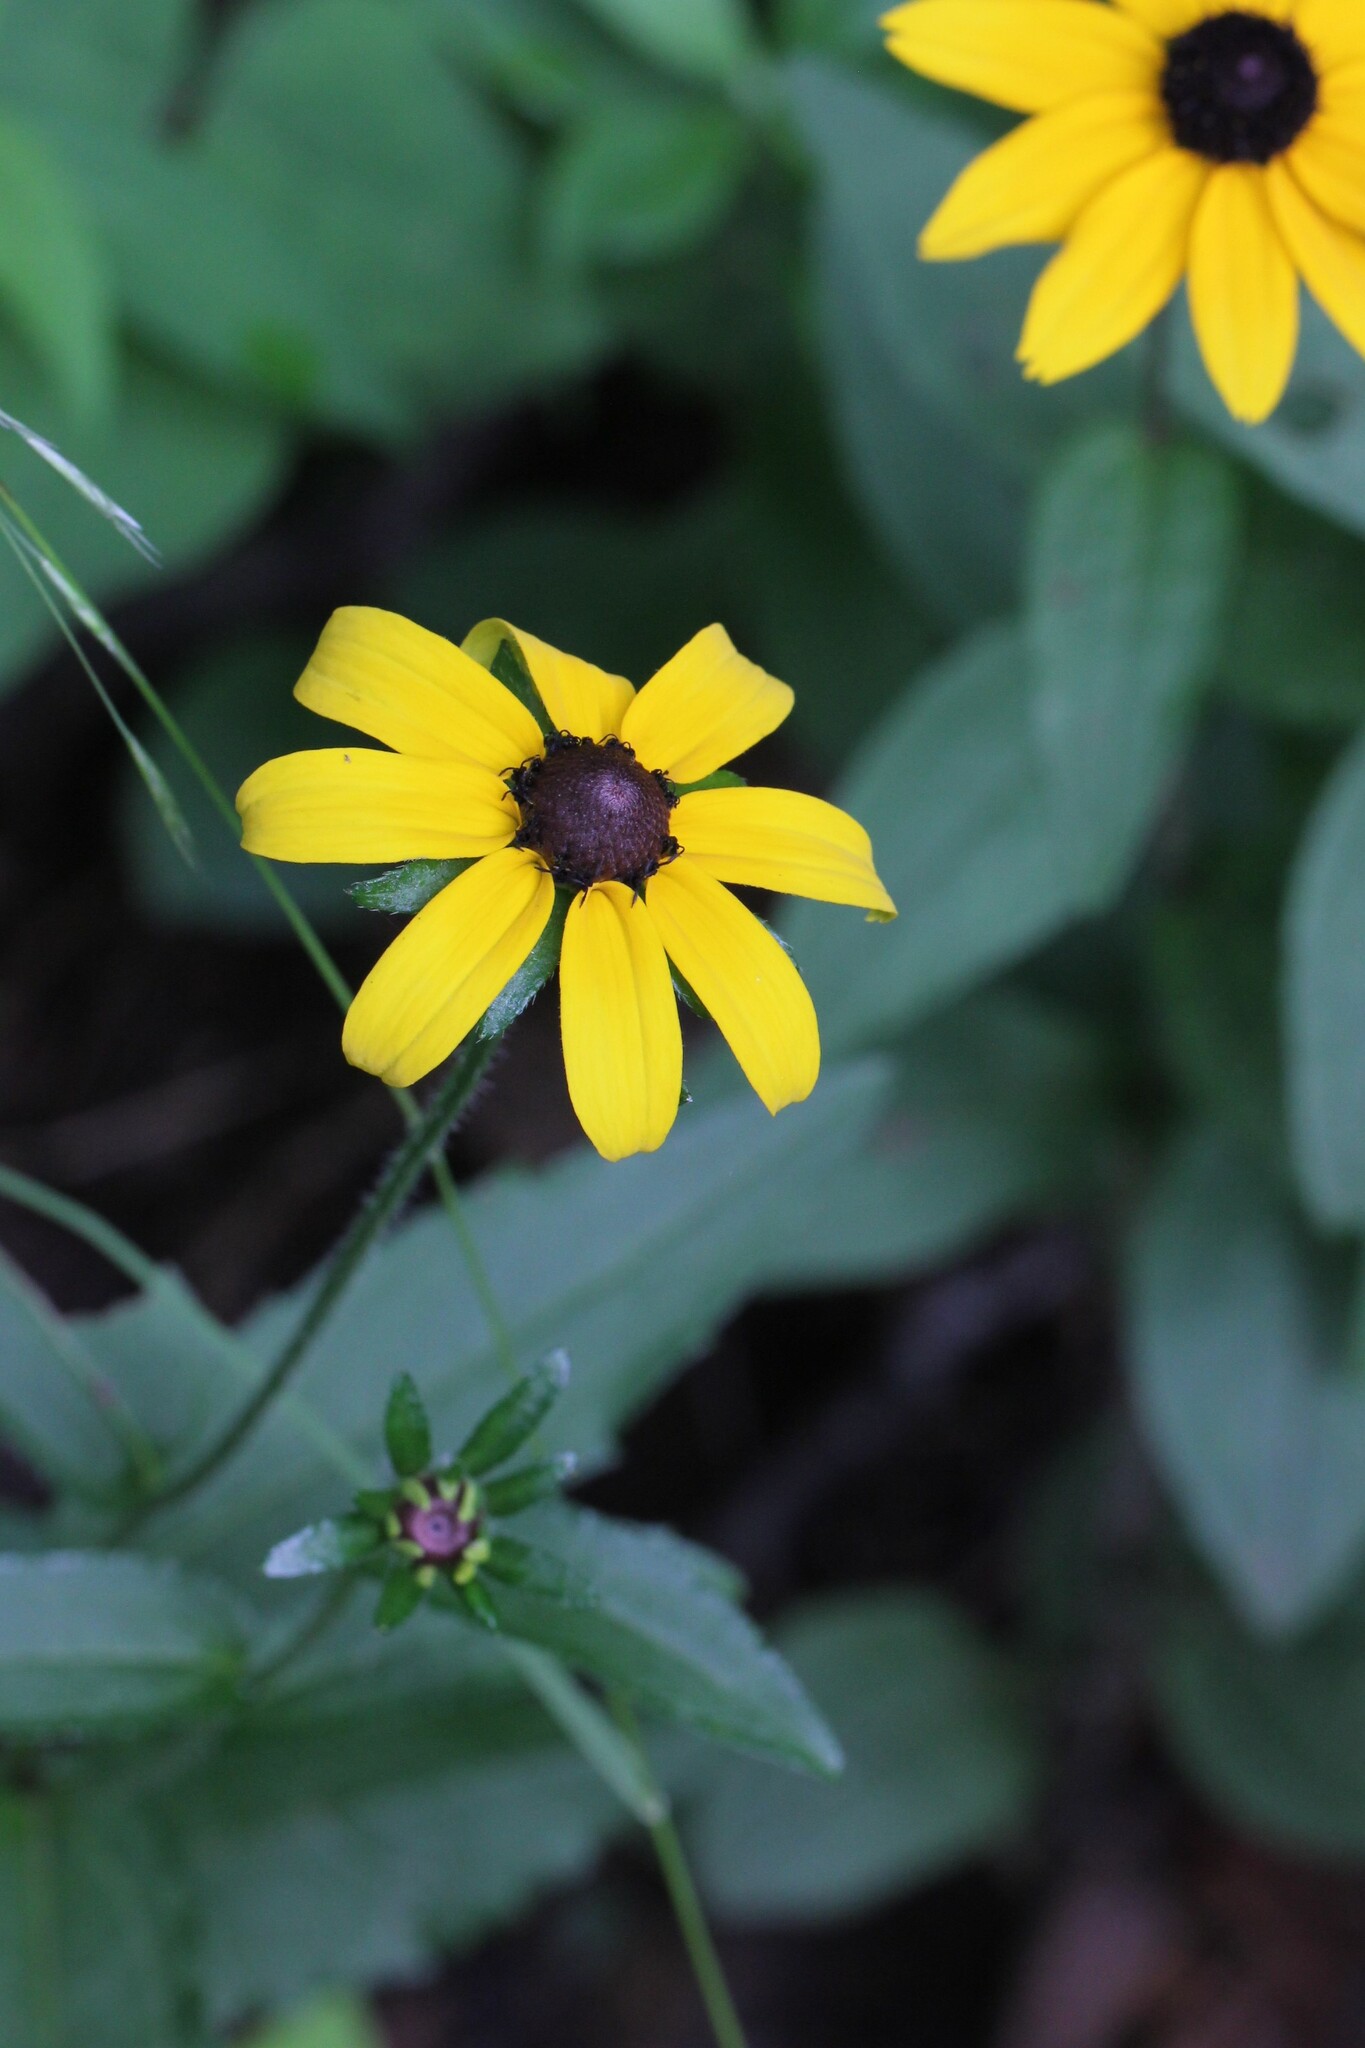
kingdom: Plantae
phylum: Tracheophyta
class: Magnoliopsida
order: Asterales
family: Asteraceae
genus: Rudbeckia
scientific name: Rudbeckia hirta
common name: Black-eyed-susan
